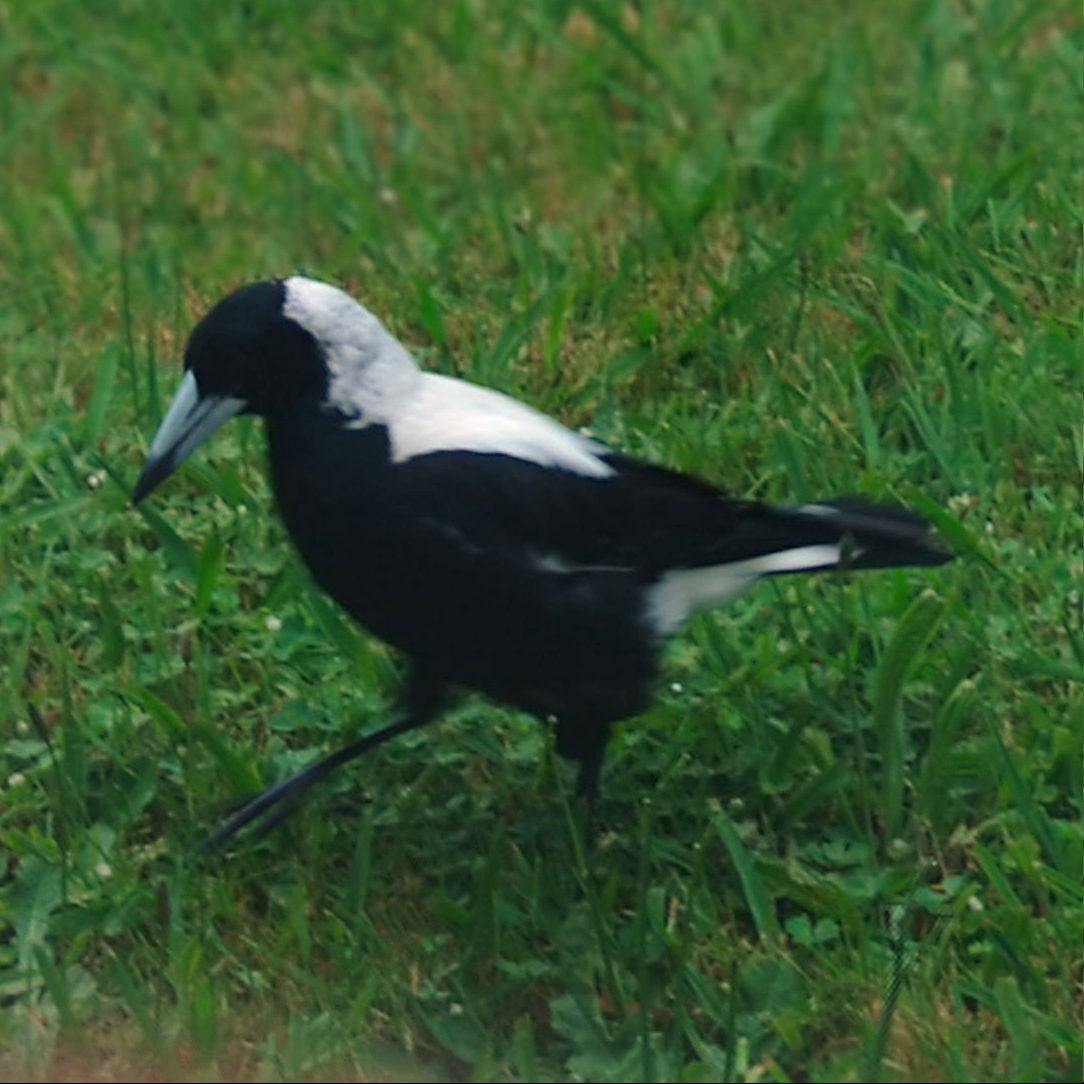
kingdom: Animalia
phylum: Chordata
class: Aves
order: Passeriformes
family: Cracticidae
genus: Gymnorhina
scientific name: Gymnorhina tibicen
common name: Australian magpie
